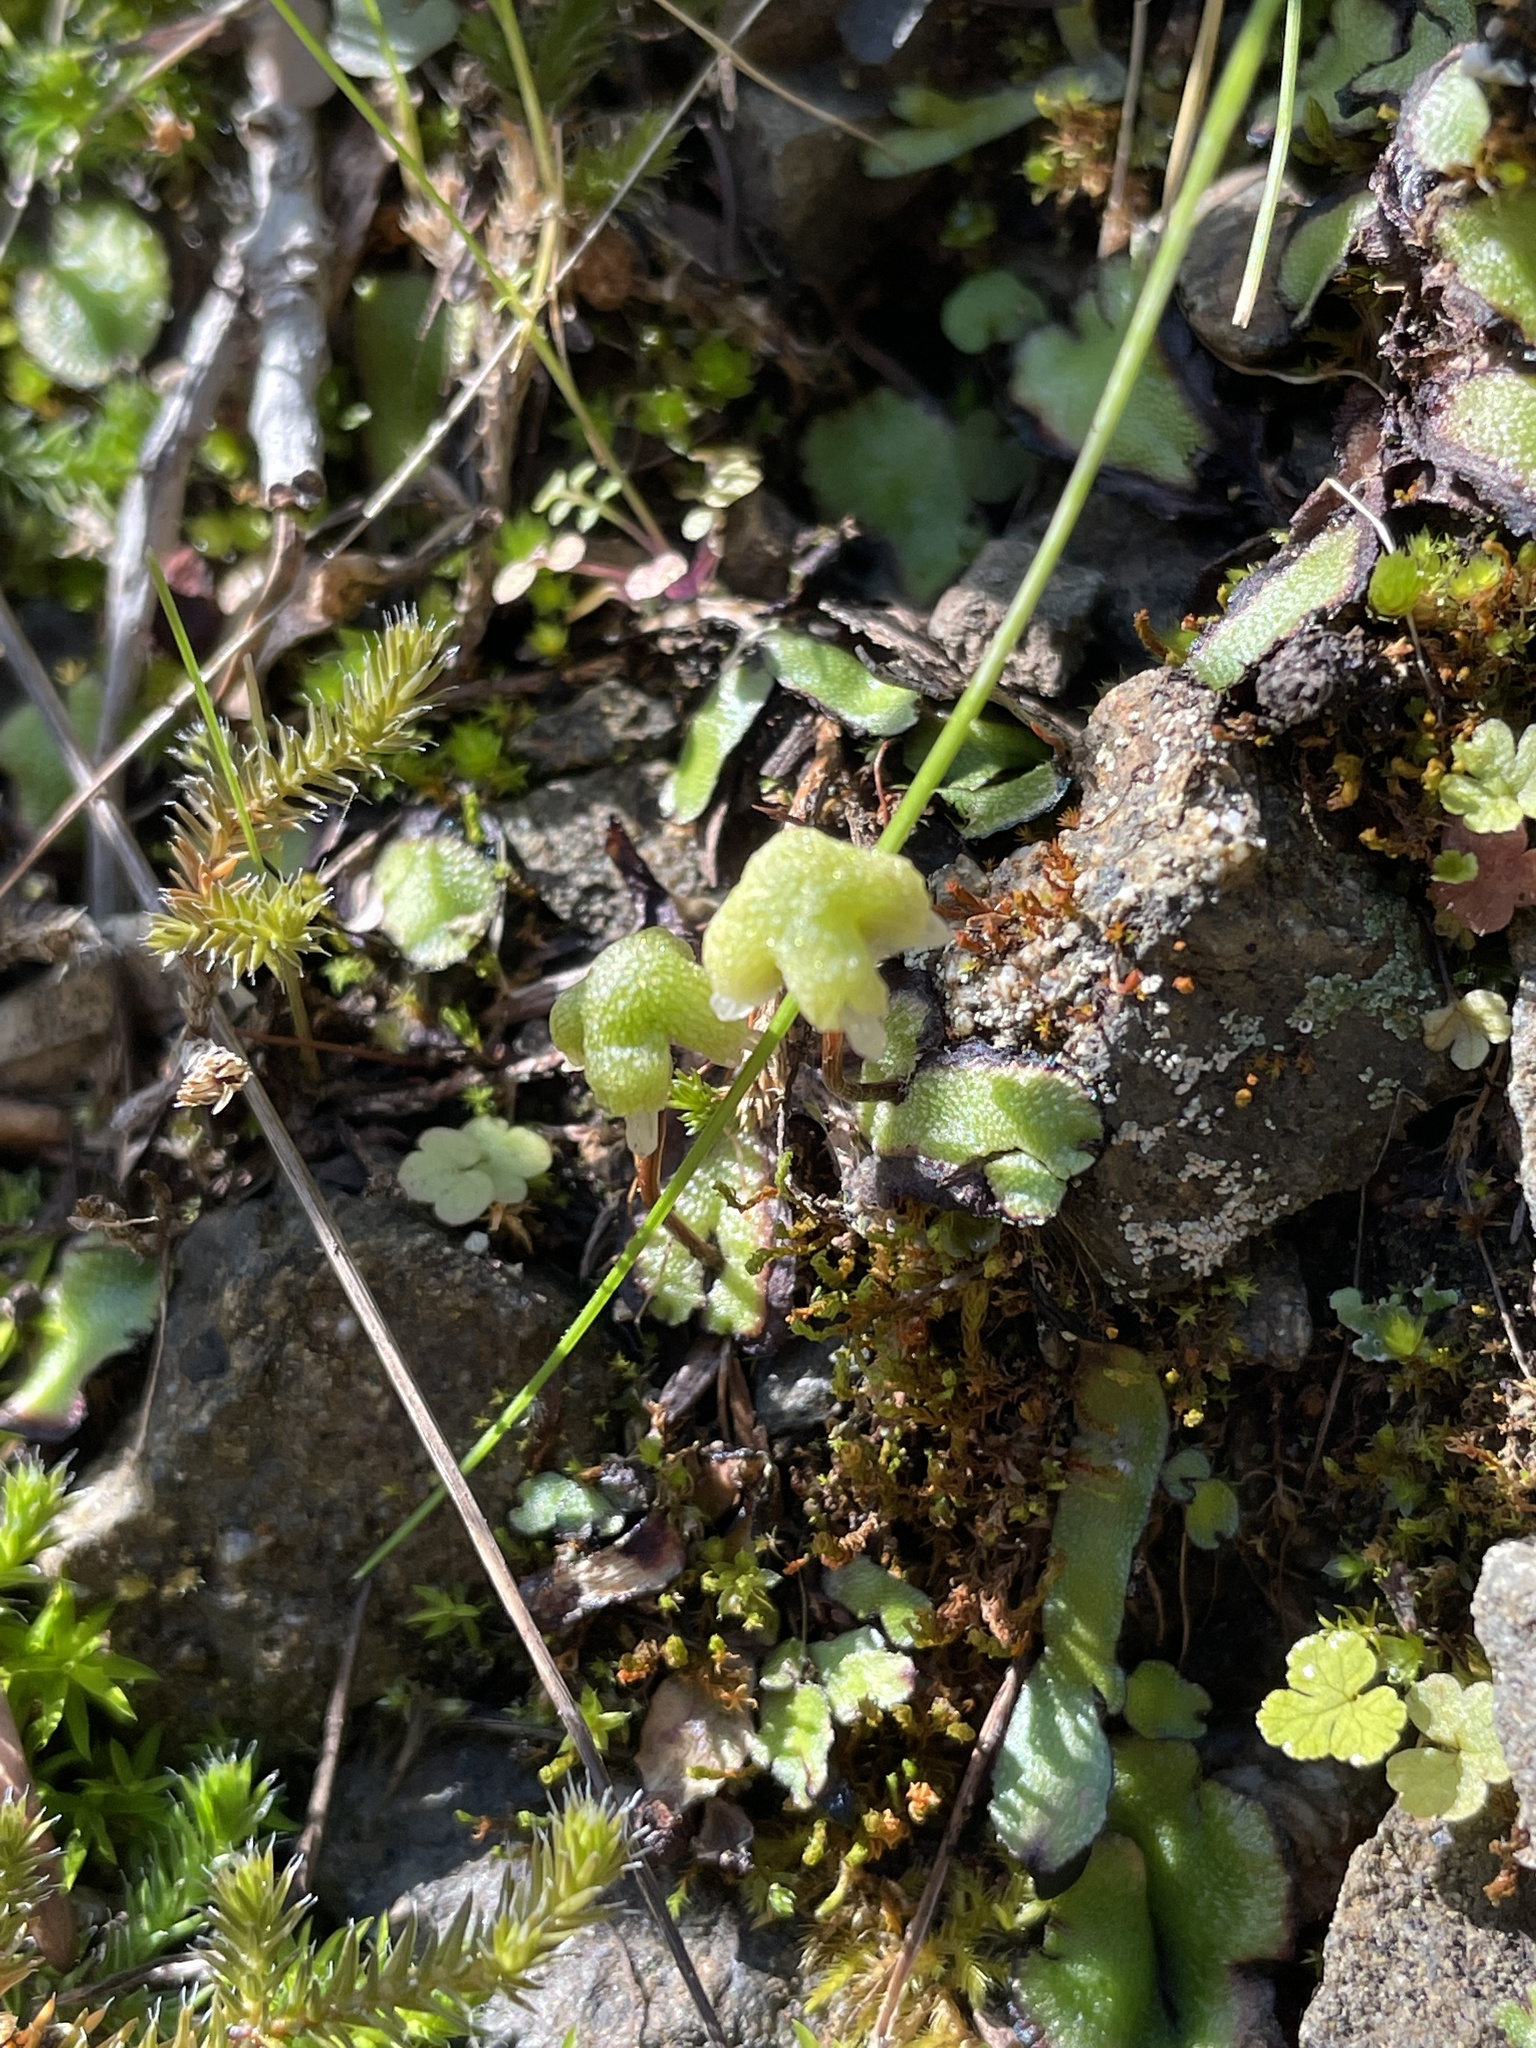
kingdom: Plantae
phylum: Marchantiophyta
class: Marchantiopsida
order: Marchantiales
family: Aytoniaceae
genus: Asterella
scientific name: Asterella californica
